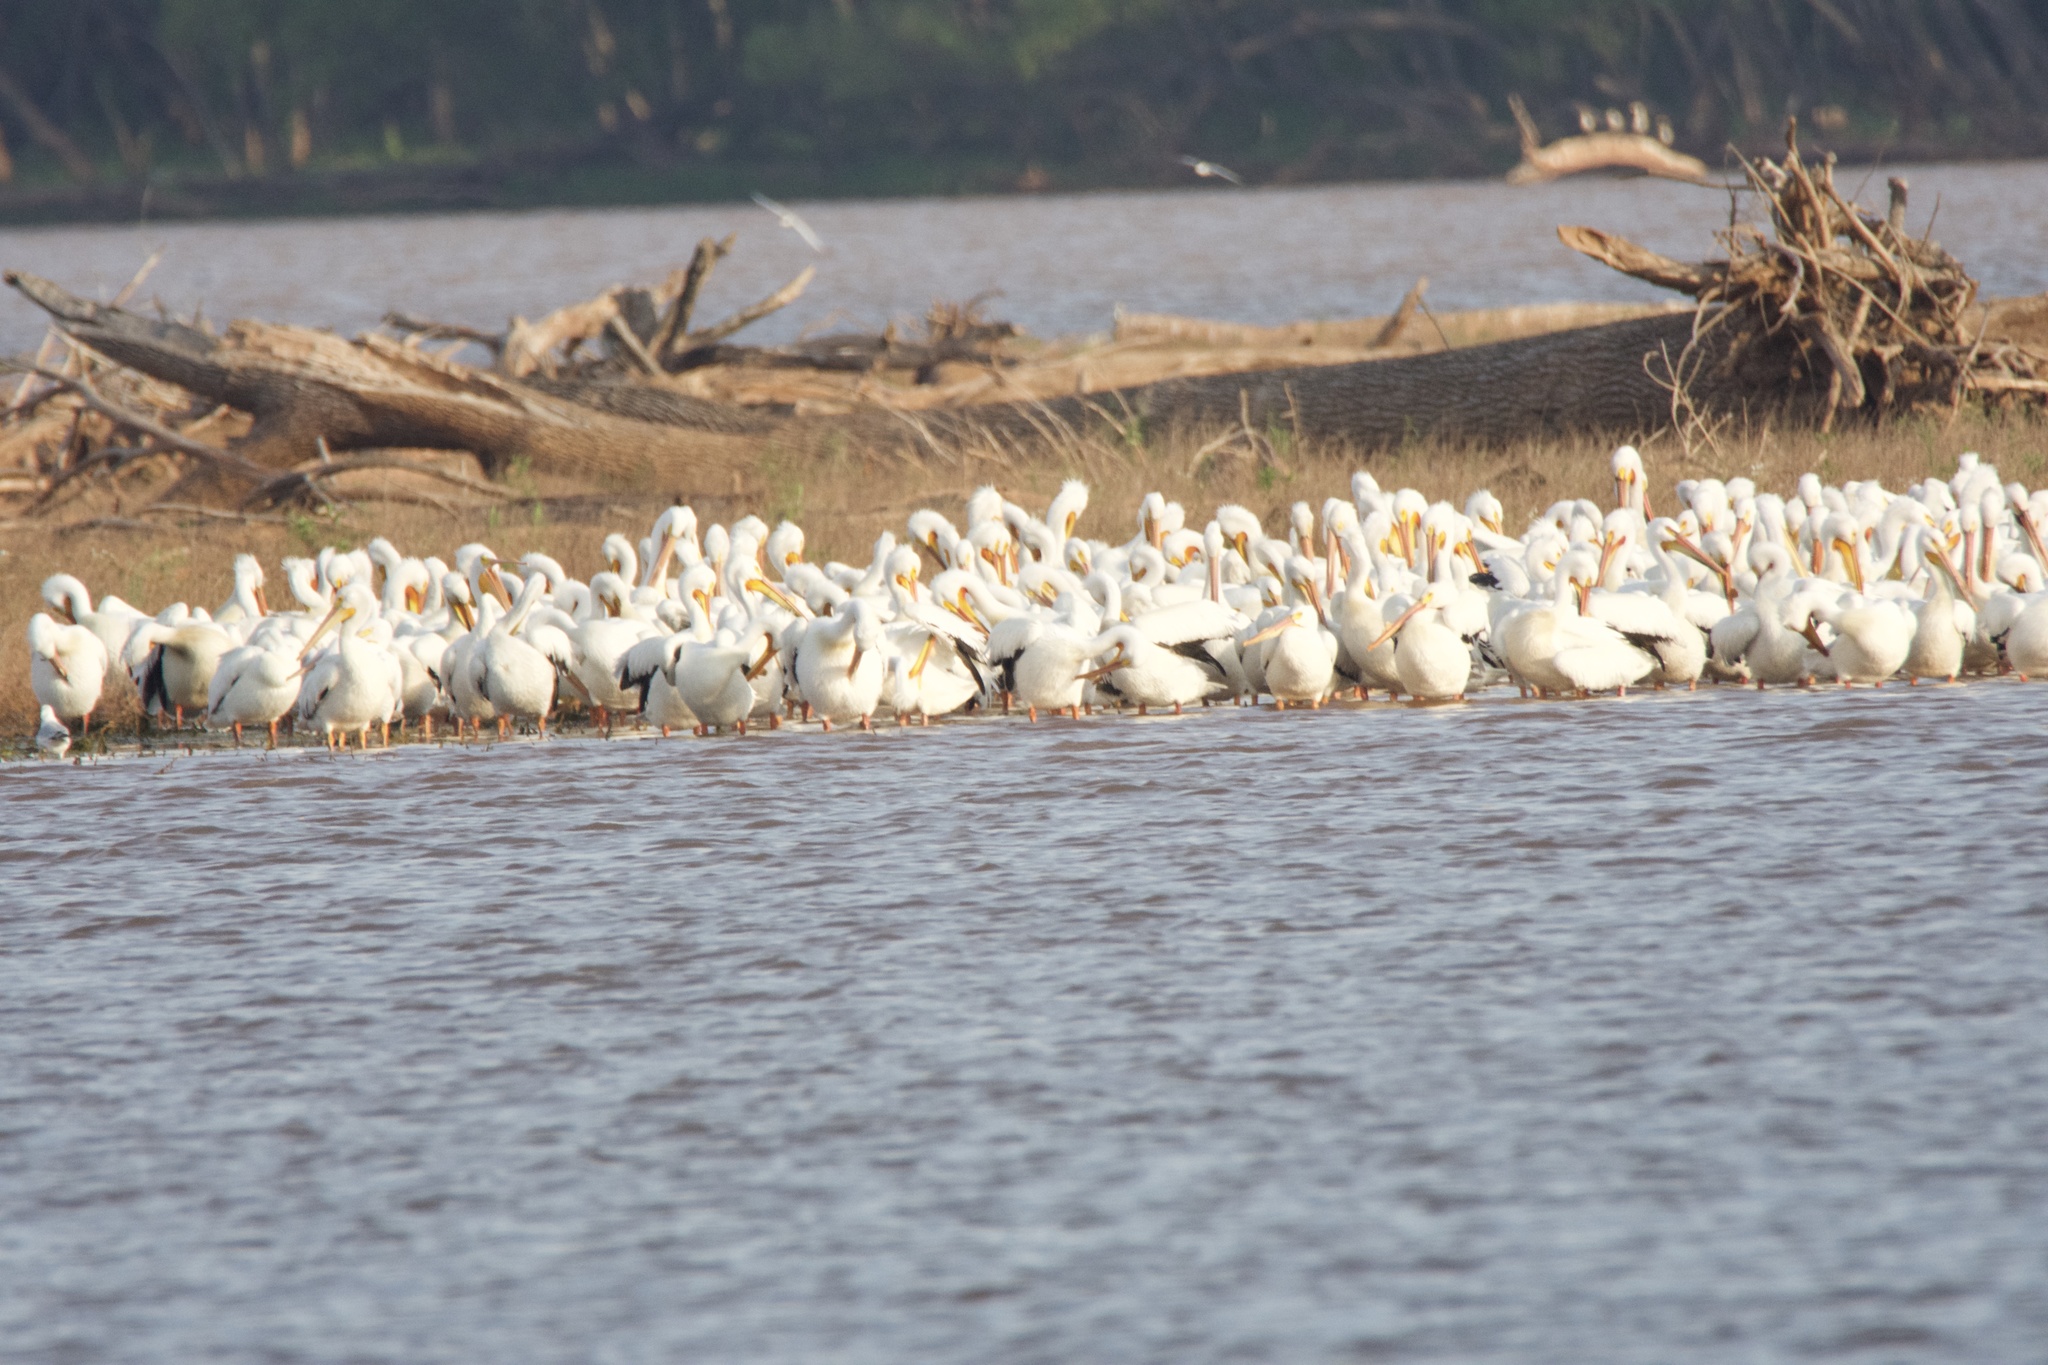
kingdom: Animalia
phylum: Chordata
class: Aves
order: Pelecaniformes
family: Pelecanidae
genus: Pelecanus
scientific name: Pelecanus erythrorhynchos
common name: American white pelican
